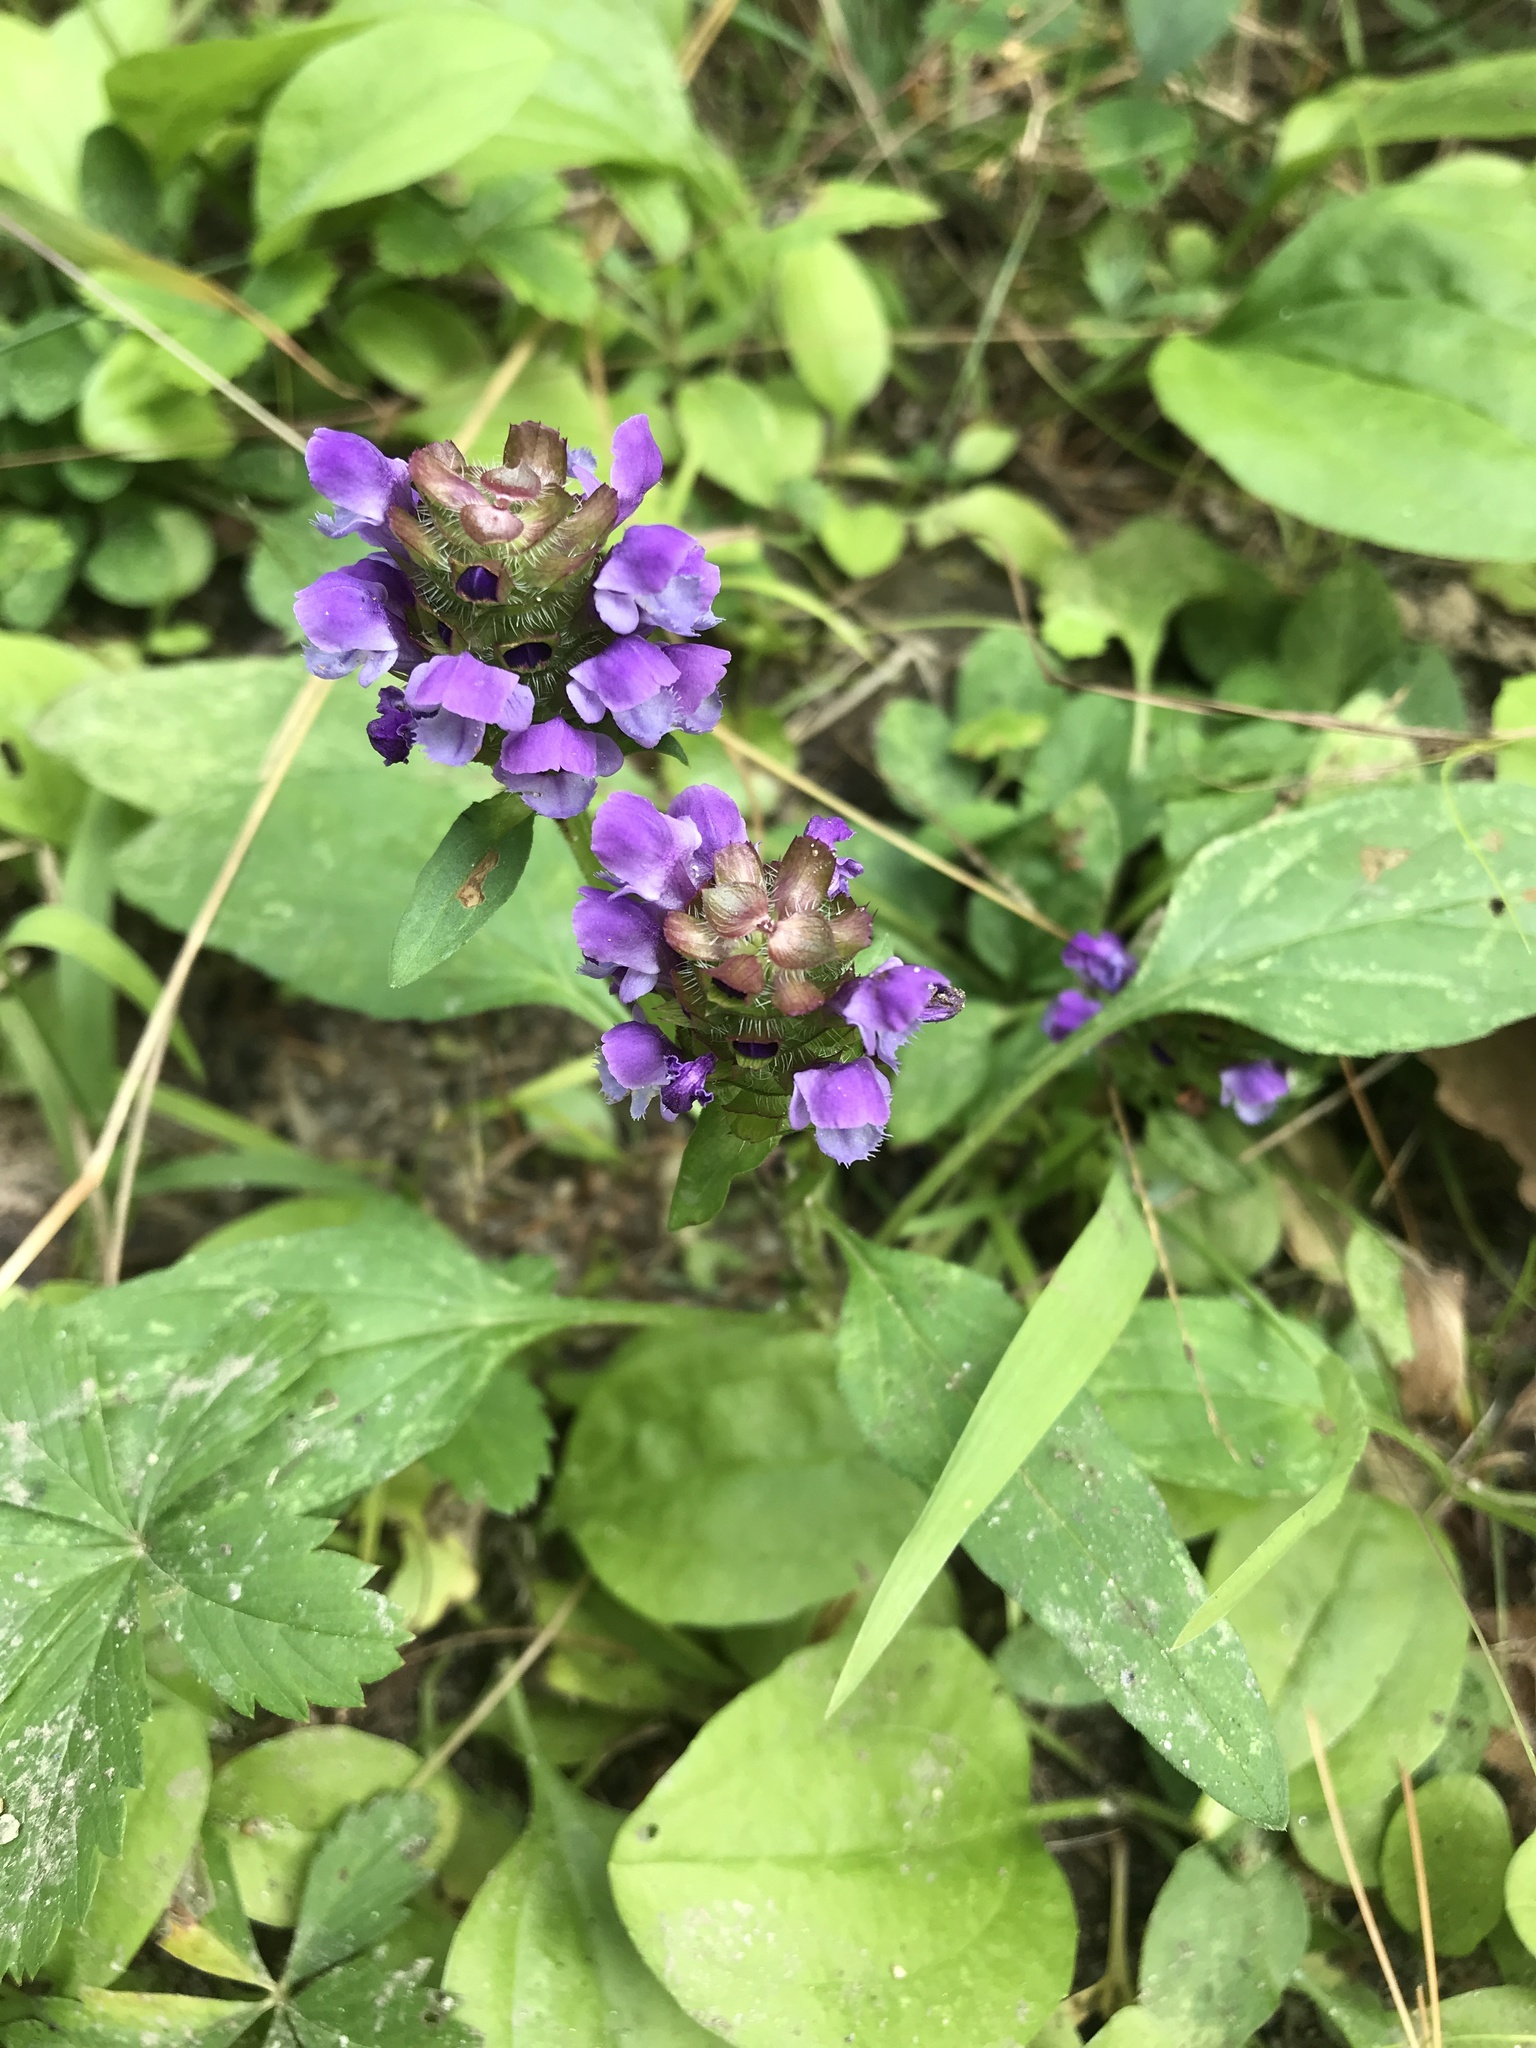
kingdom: Plantae
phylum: Tracheophyta
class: Magnoliopsida
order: Lamiales
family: Lamiaceae
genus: Prunella
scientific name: Prunella vulgaris
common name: Heal-all
